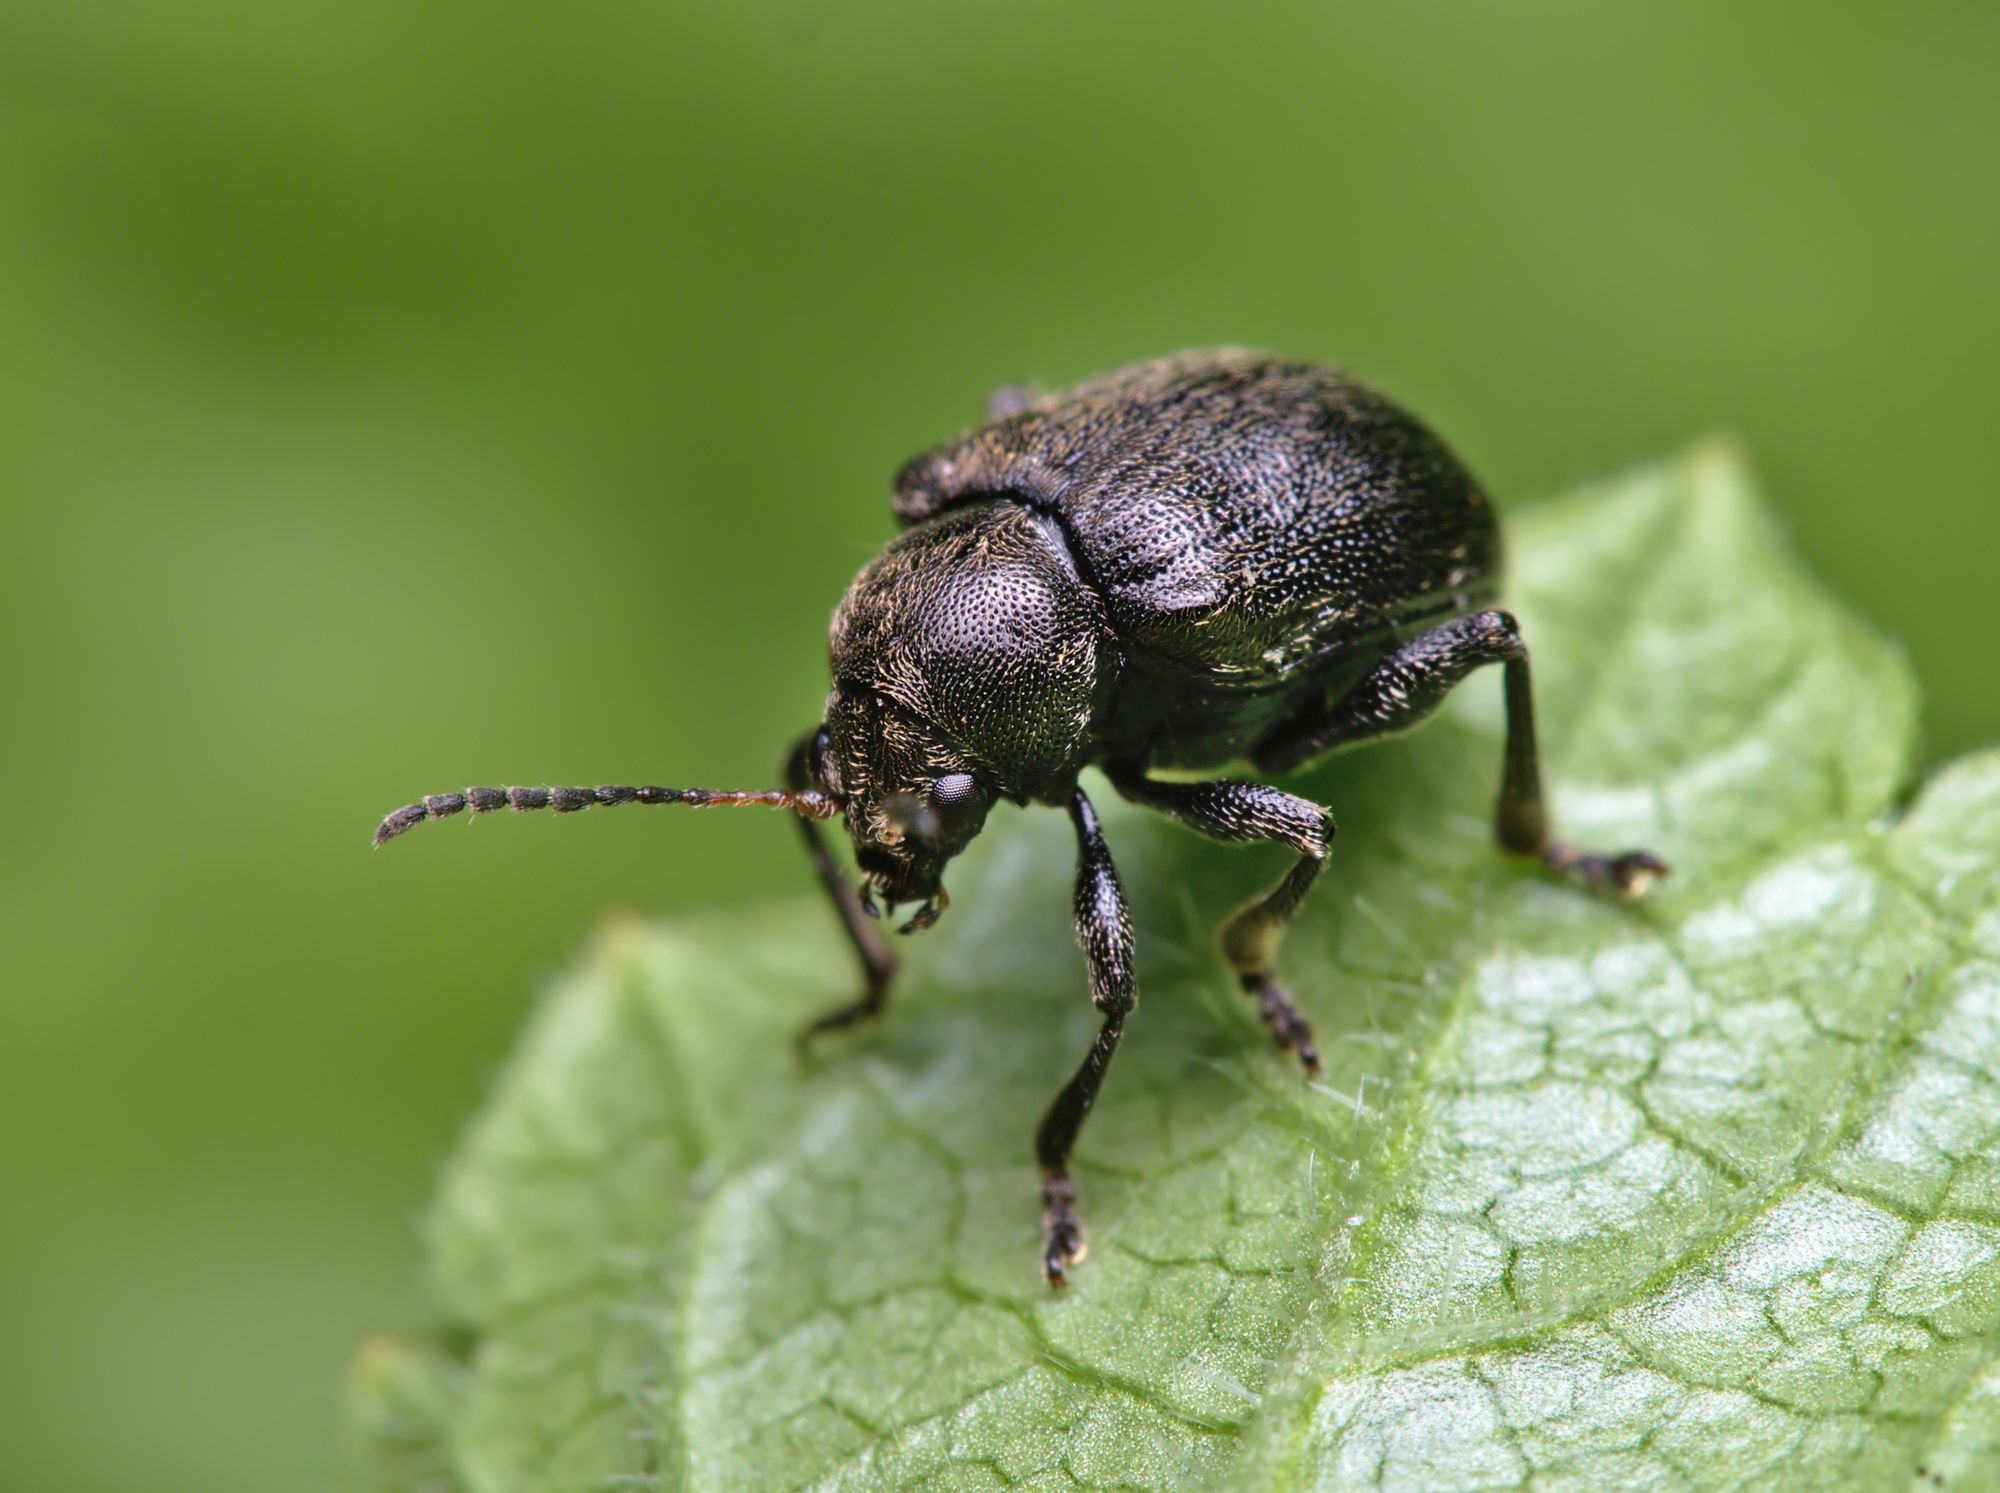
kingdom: Animalia
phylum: Arthropoda
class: Insecta
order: Coleoptera
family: Chrysomelidae
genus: Bromius
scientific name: Bromius obscurus
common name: Western grape rootworm
